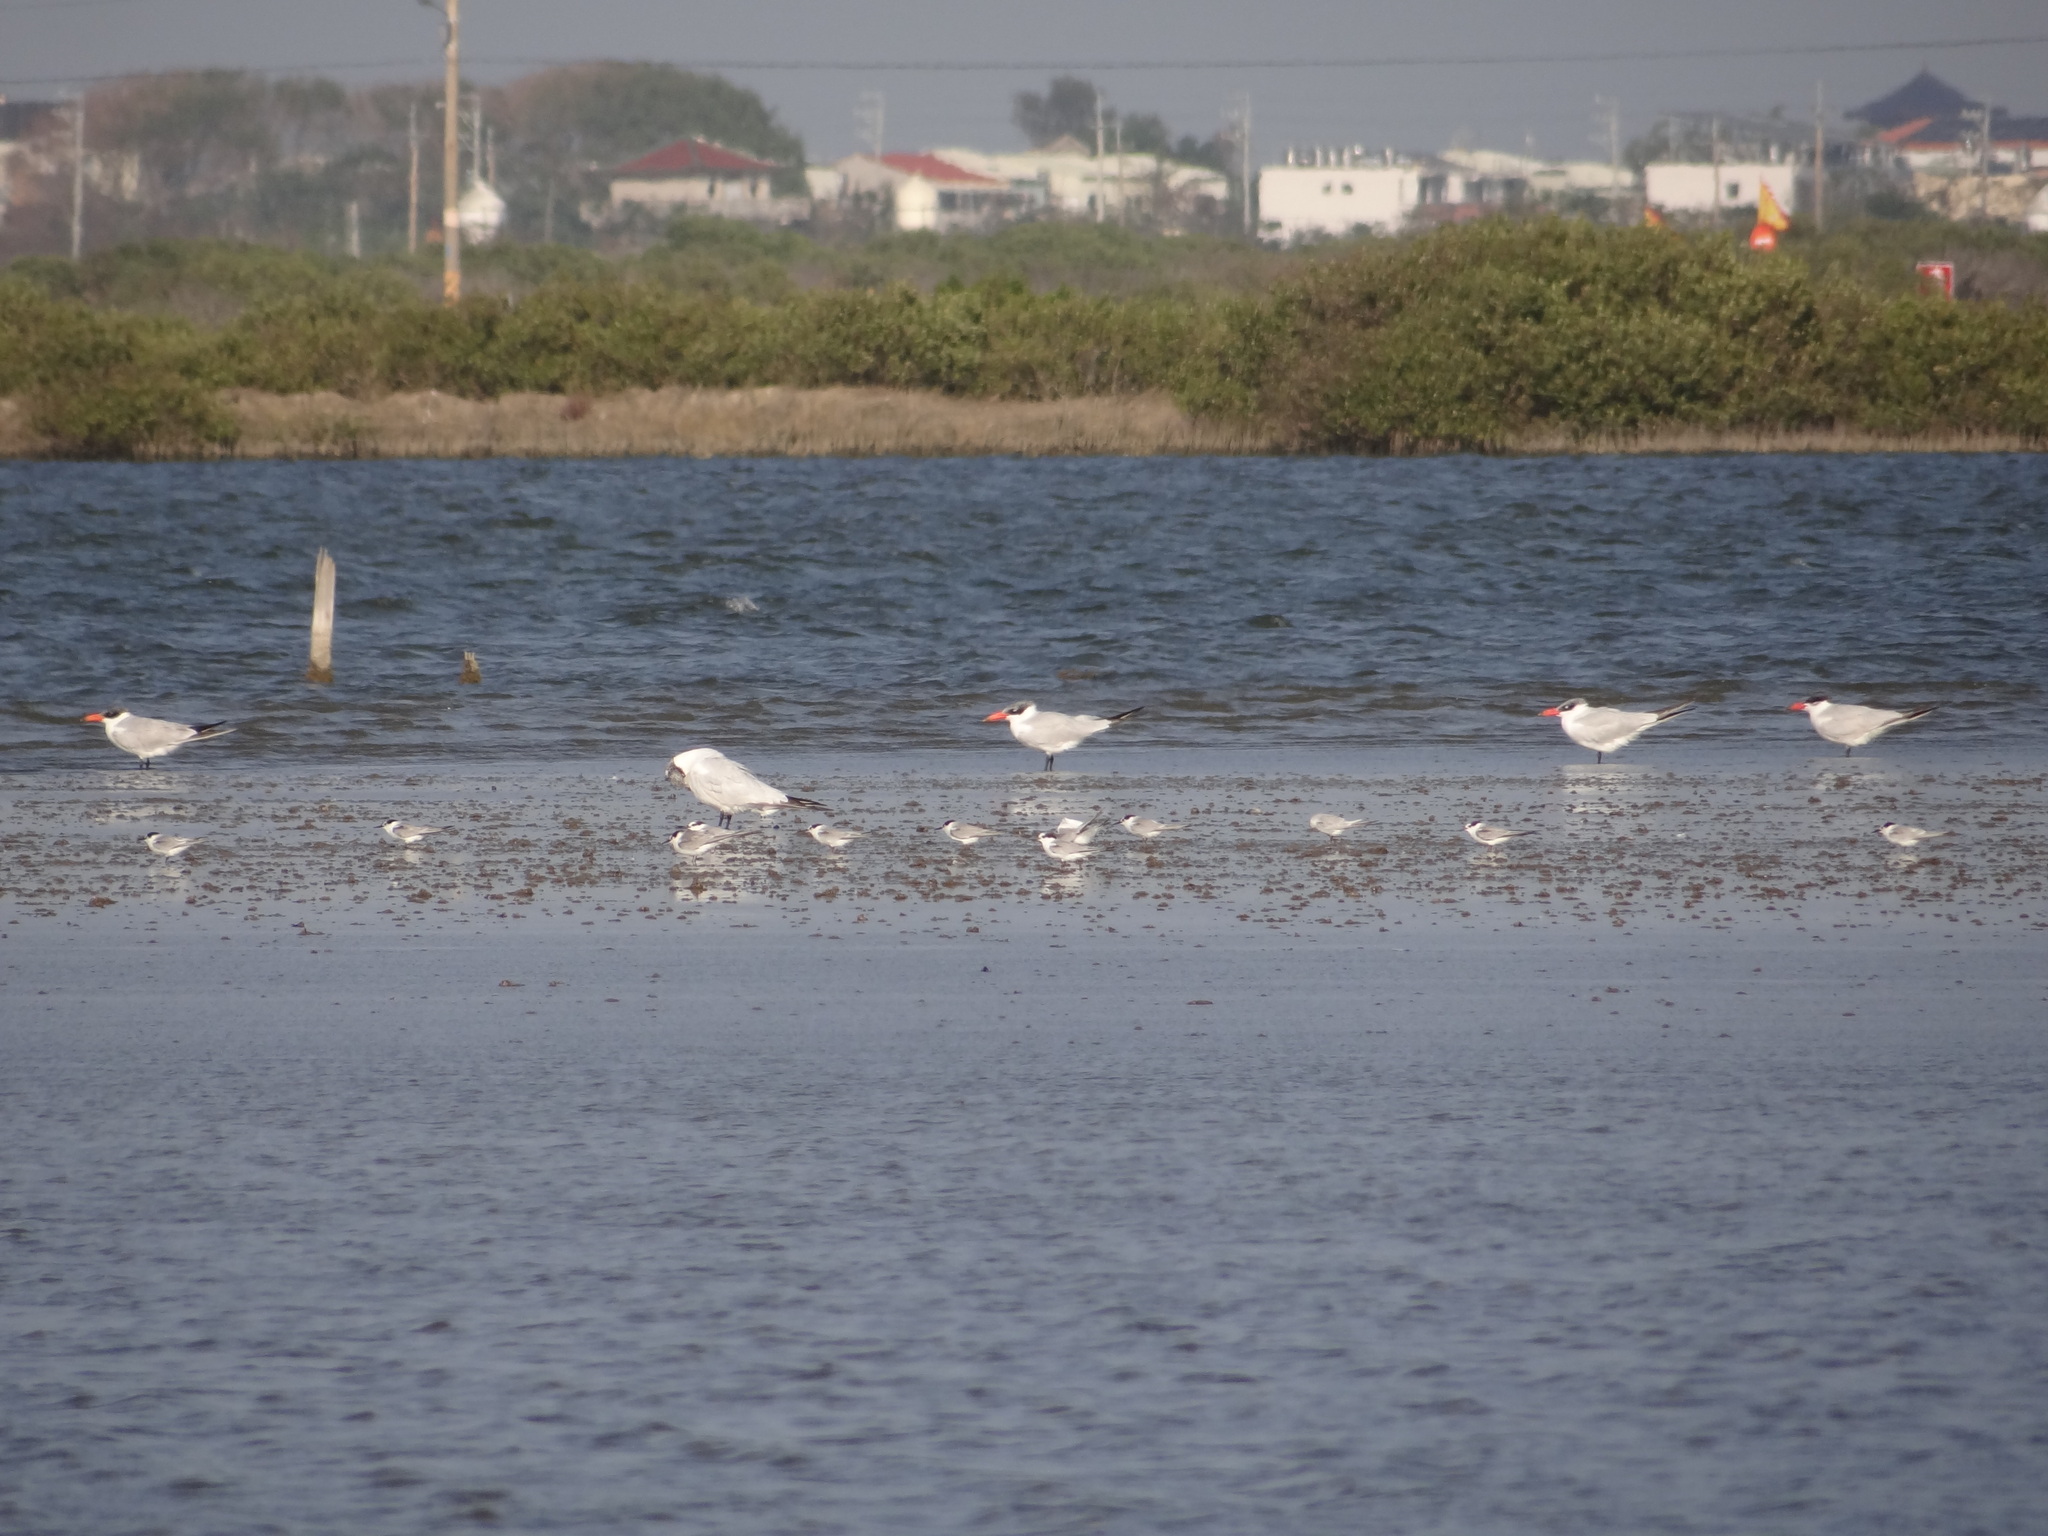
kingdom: Animalia
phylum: Chordata
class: Aves
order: Charadriiformes
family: Laridae
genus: Hydroprogne
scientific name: Hydroprogne caspia
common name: Caspian tern
